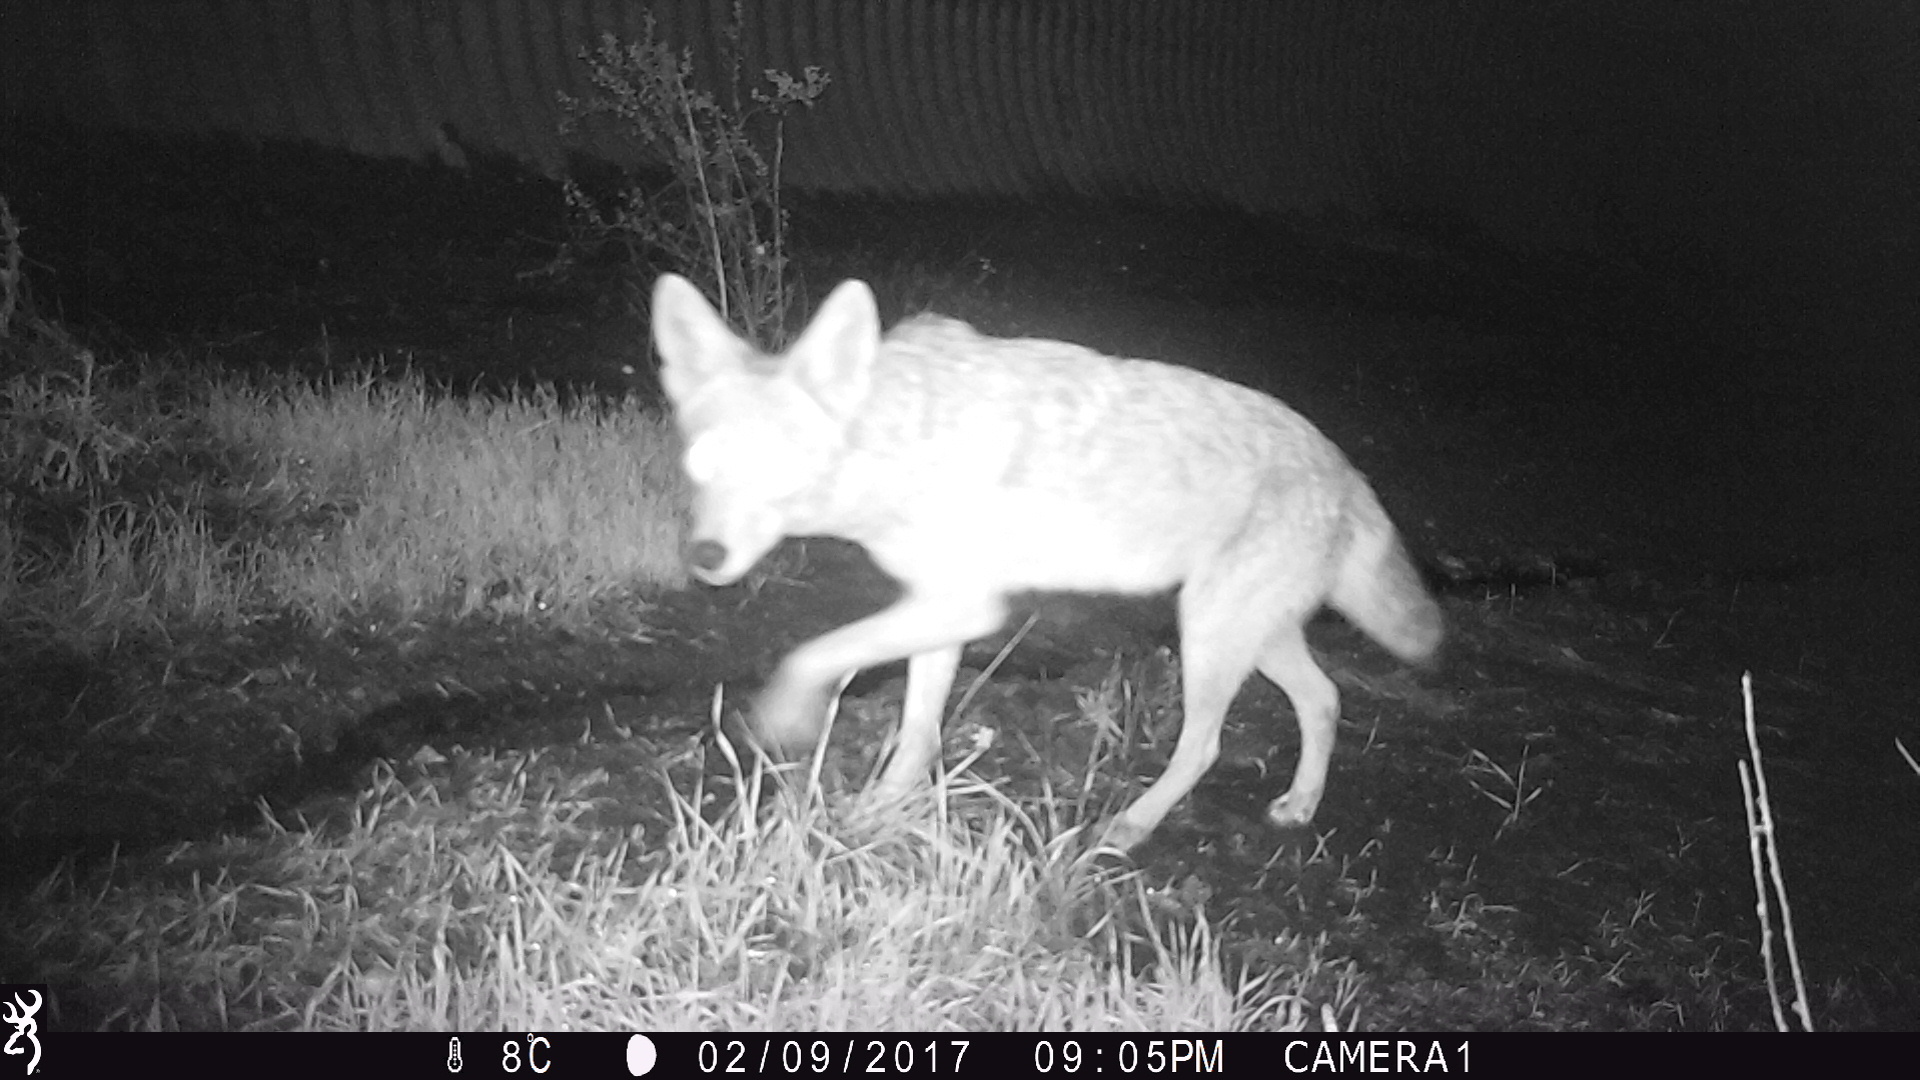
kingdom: Animalia
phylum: Chordata
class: Mammalia
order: Carnivora
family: Canidae
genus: Canis
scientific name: Canis latrans
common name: Coyote
